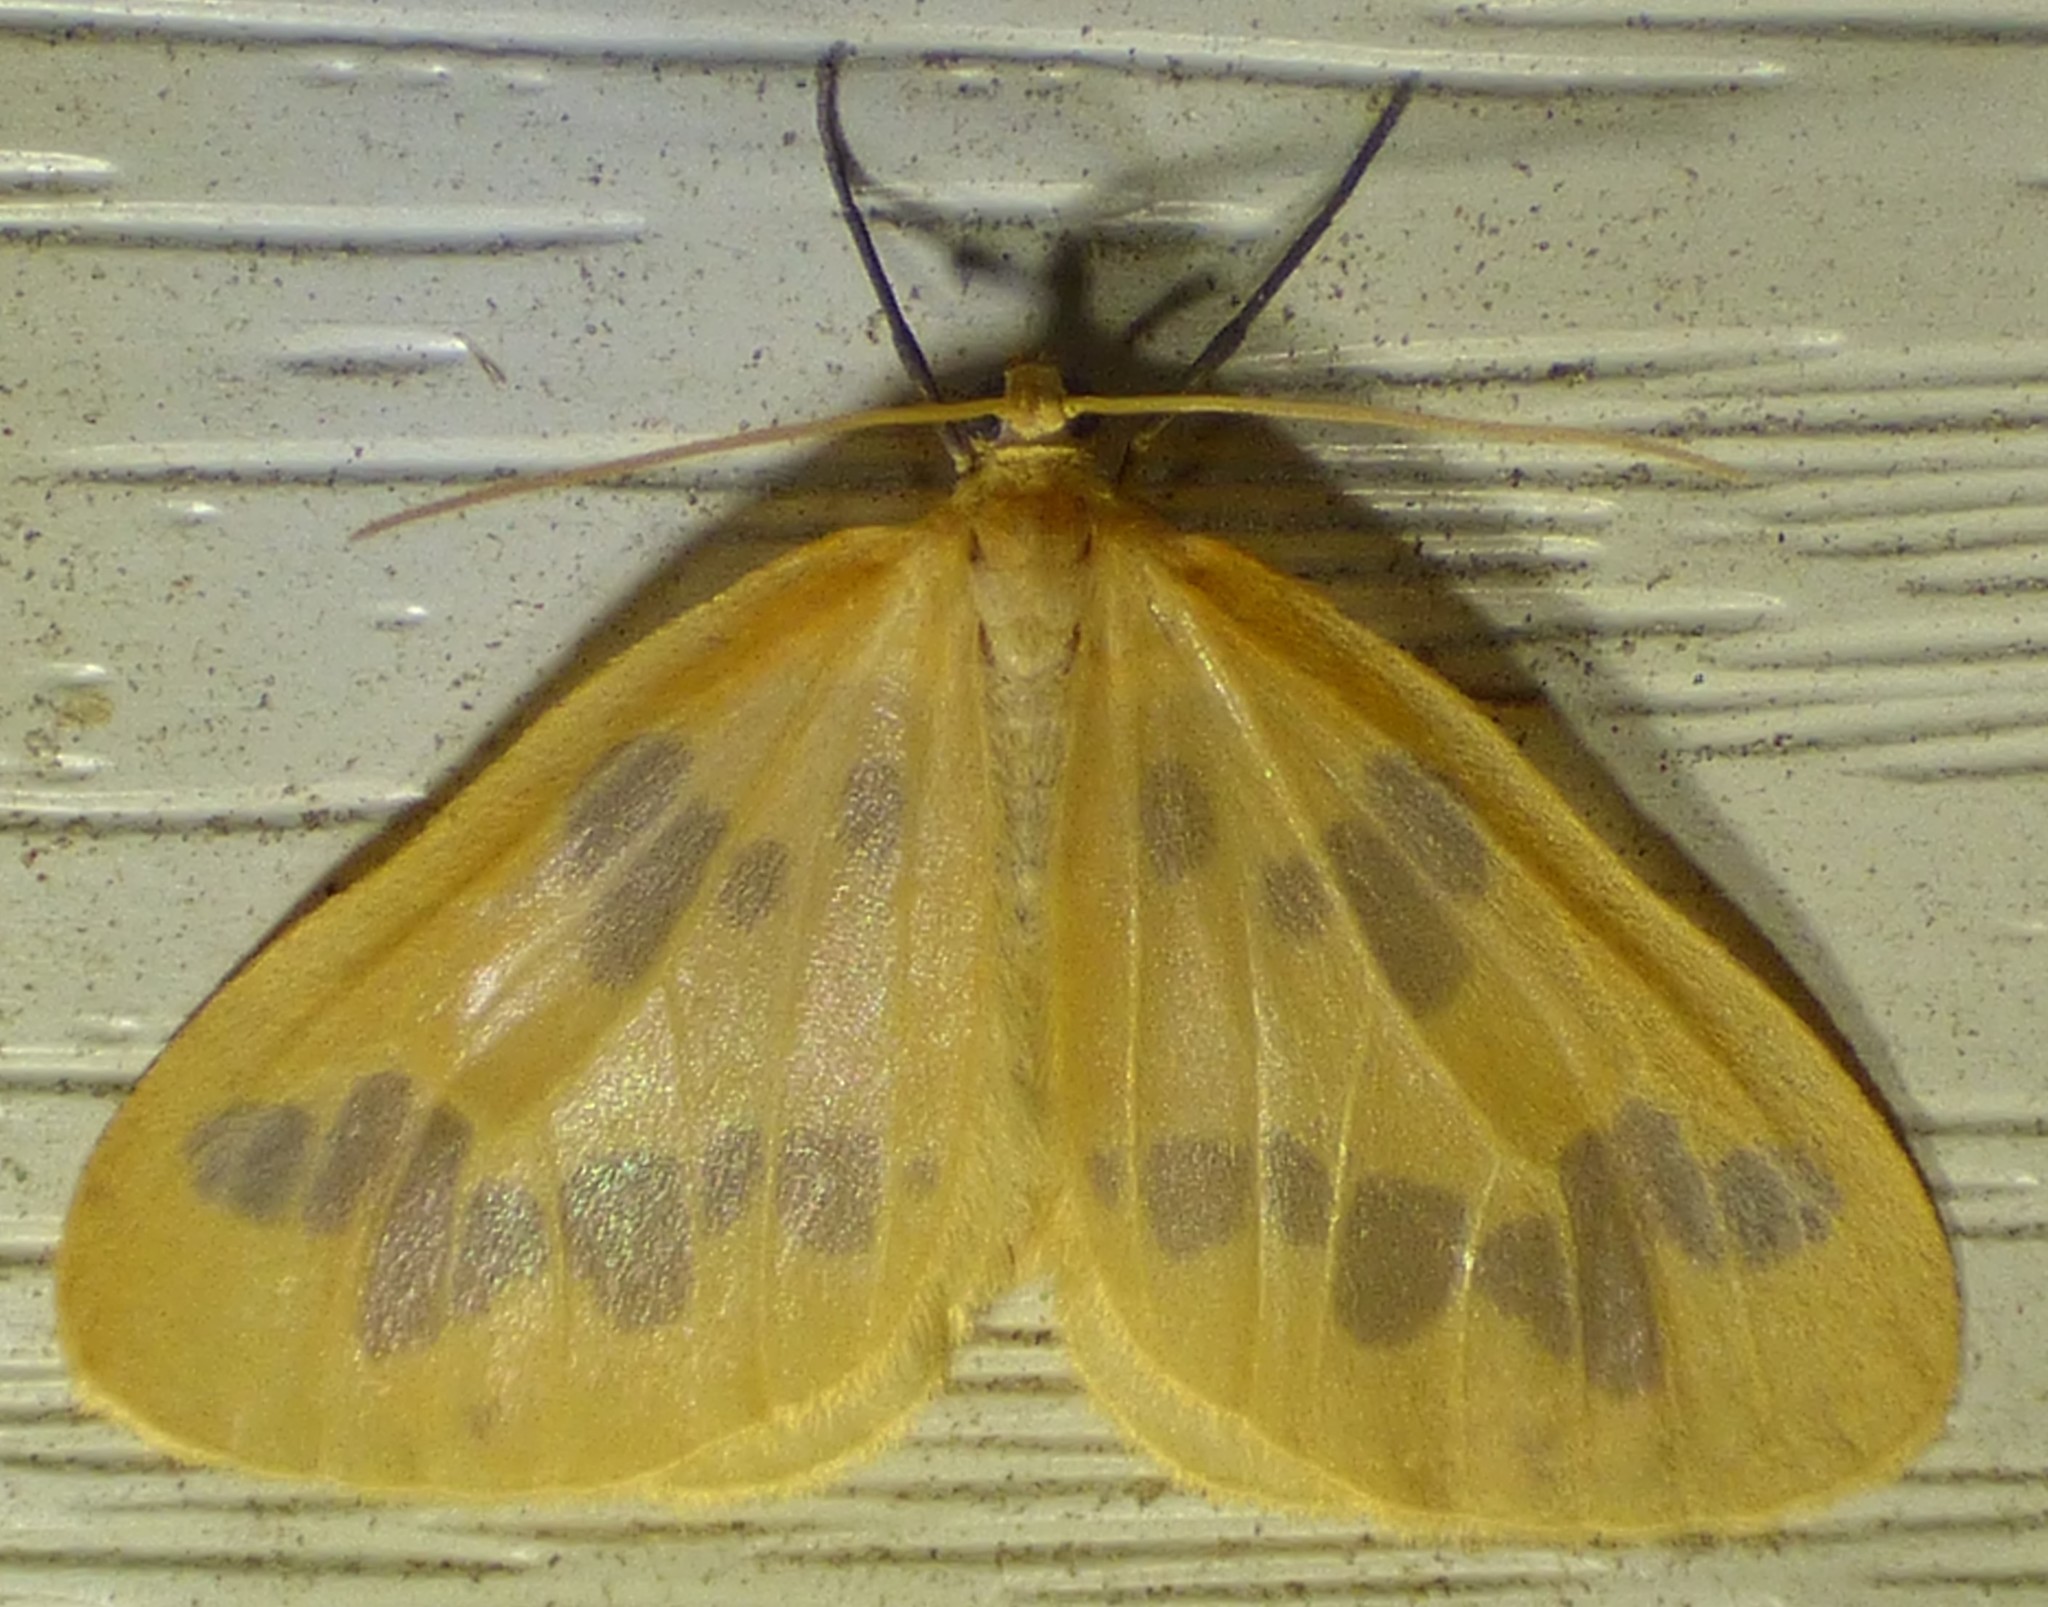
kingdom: Animalia
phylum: Arthropoda
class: Insecta
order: Lepidoptera
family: Geometridae
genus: Eubaphe
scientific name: Eubaphe mendica
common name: Beggar
